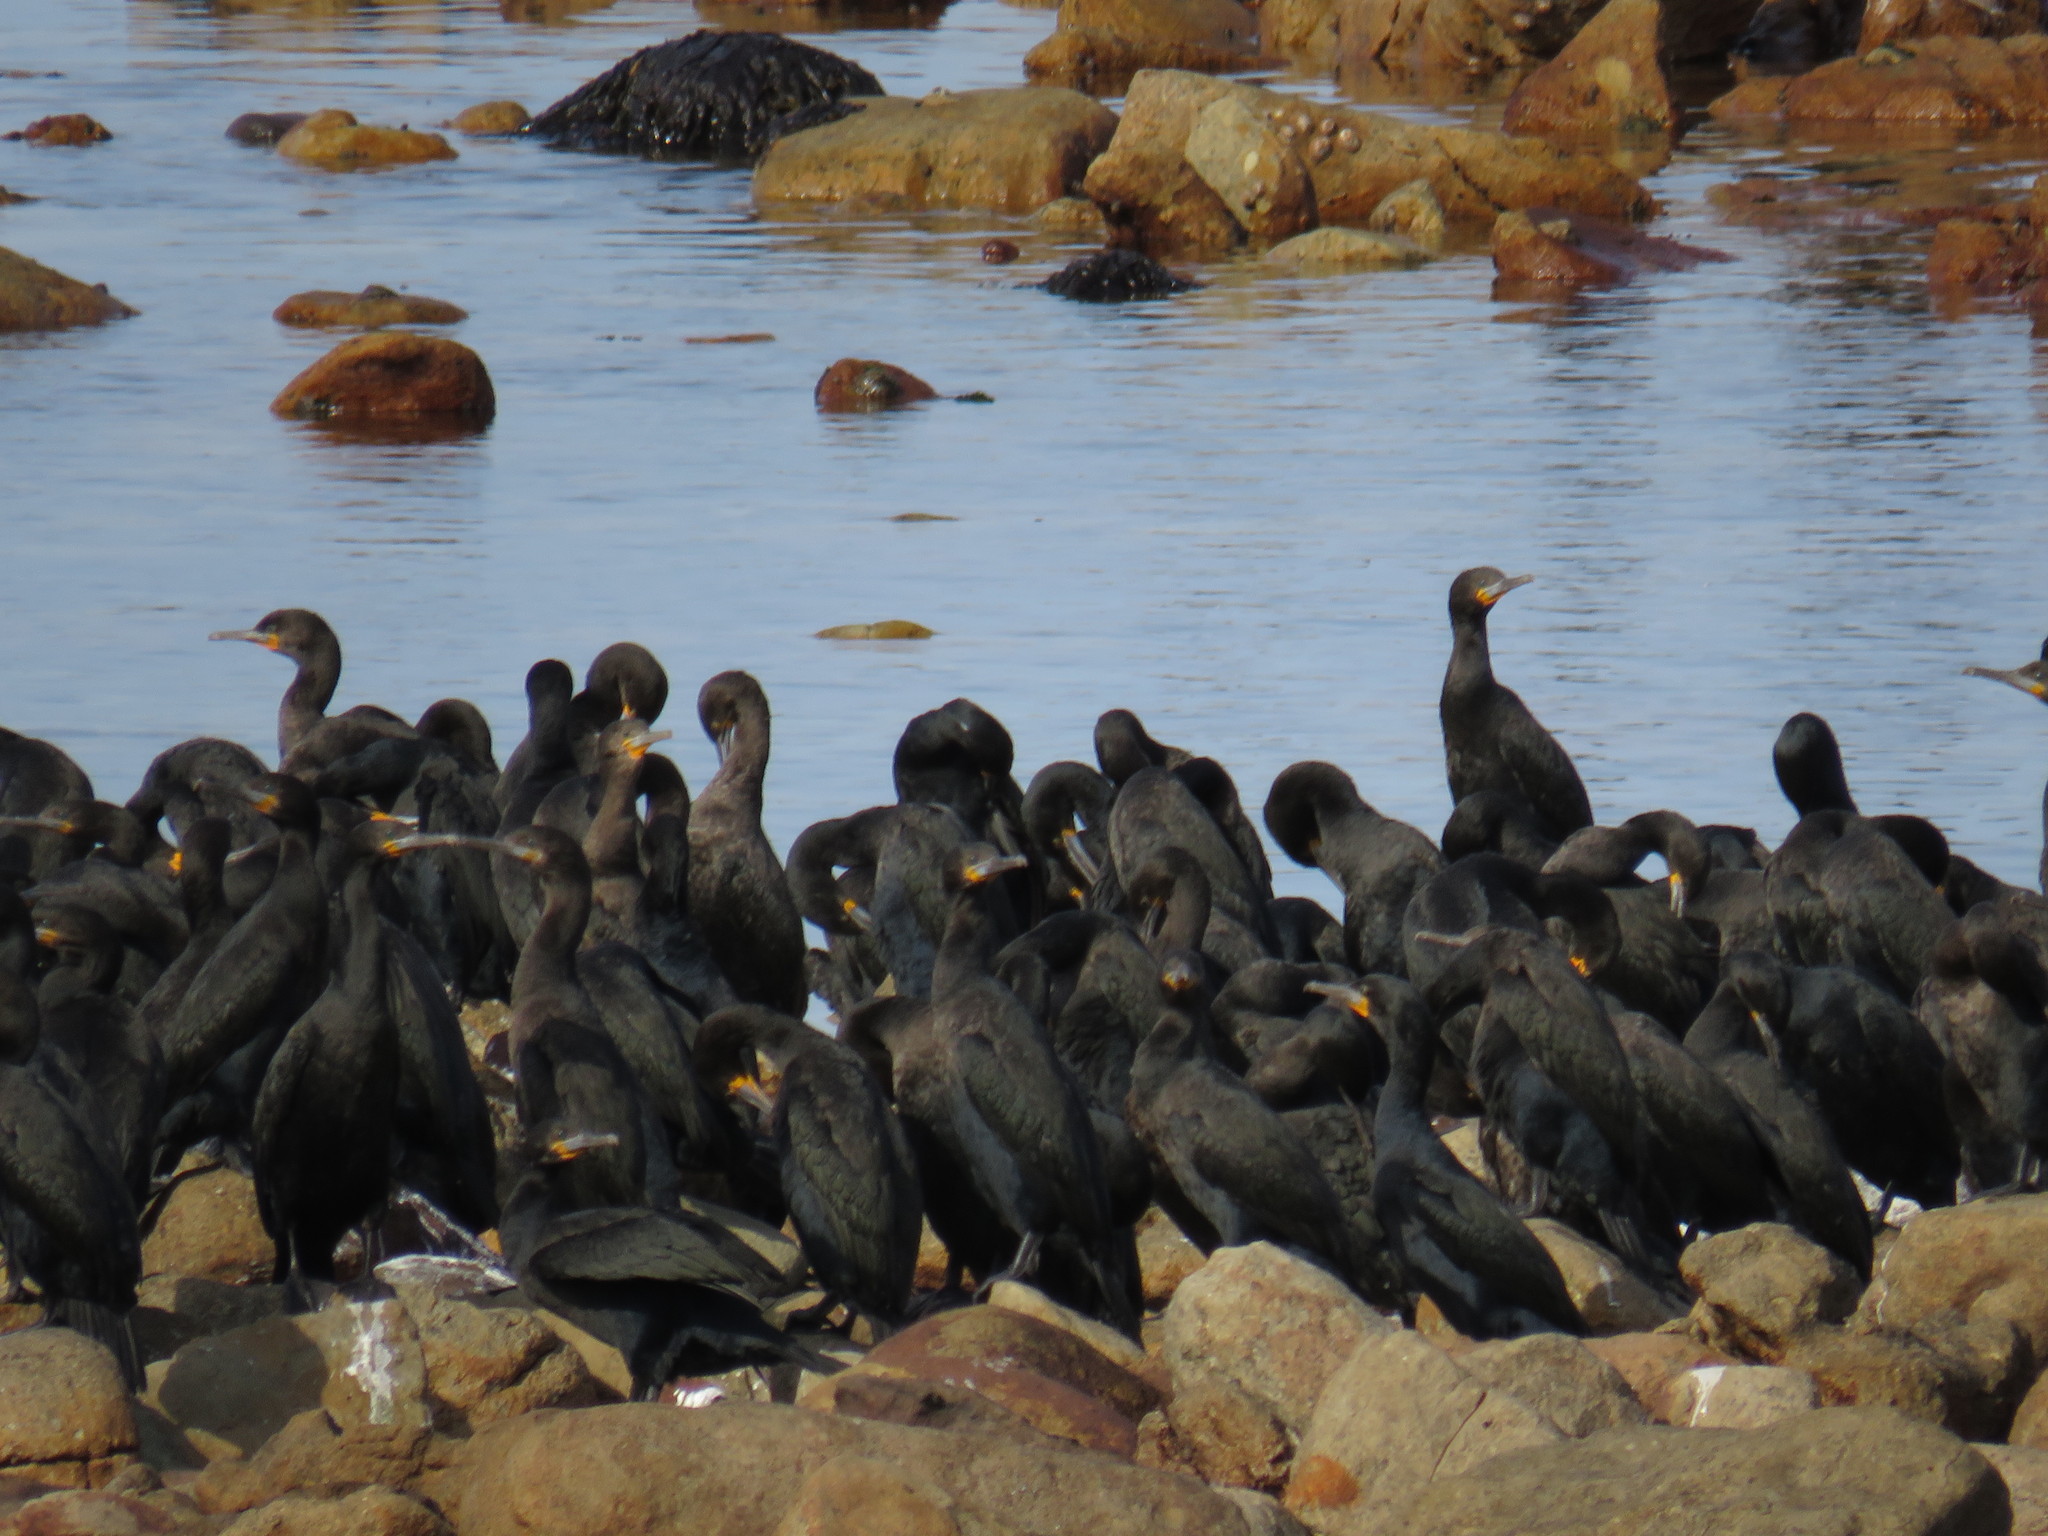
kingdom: Animalia
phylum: Chordata
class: Aves
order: Suliformes
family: Phalacrocoracidae
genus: Phalacrocorax
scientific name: Phalacrocorax capensis
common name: Cape cormorant
